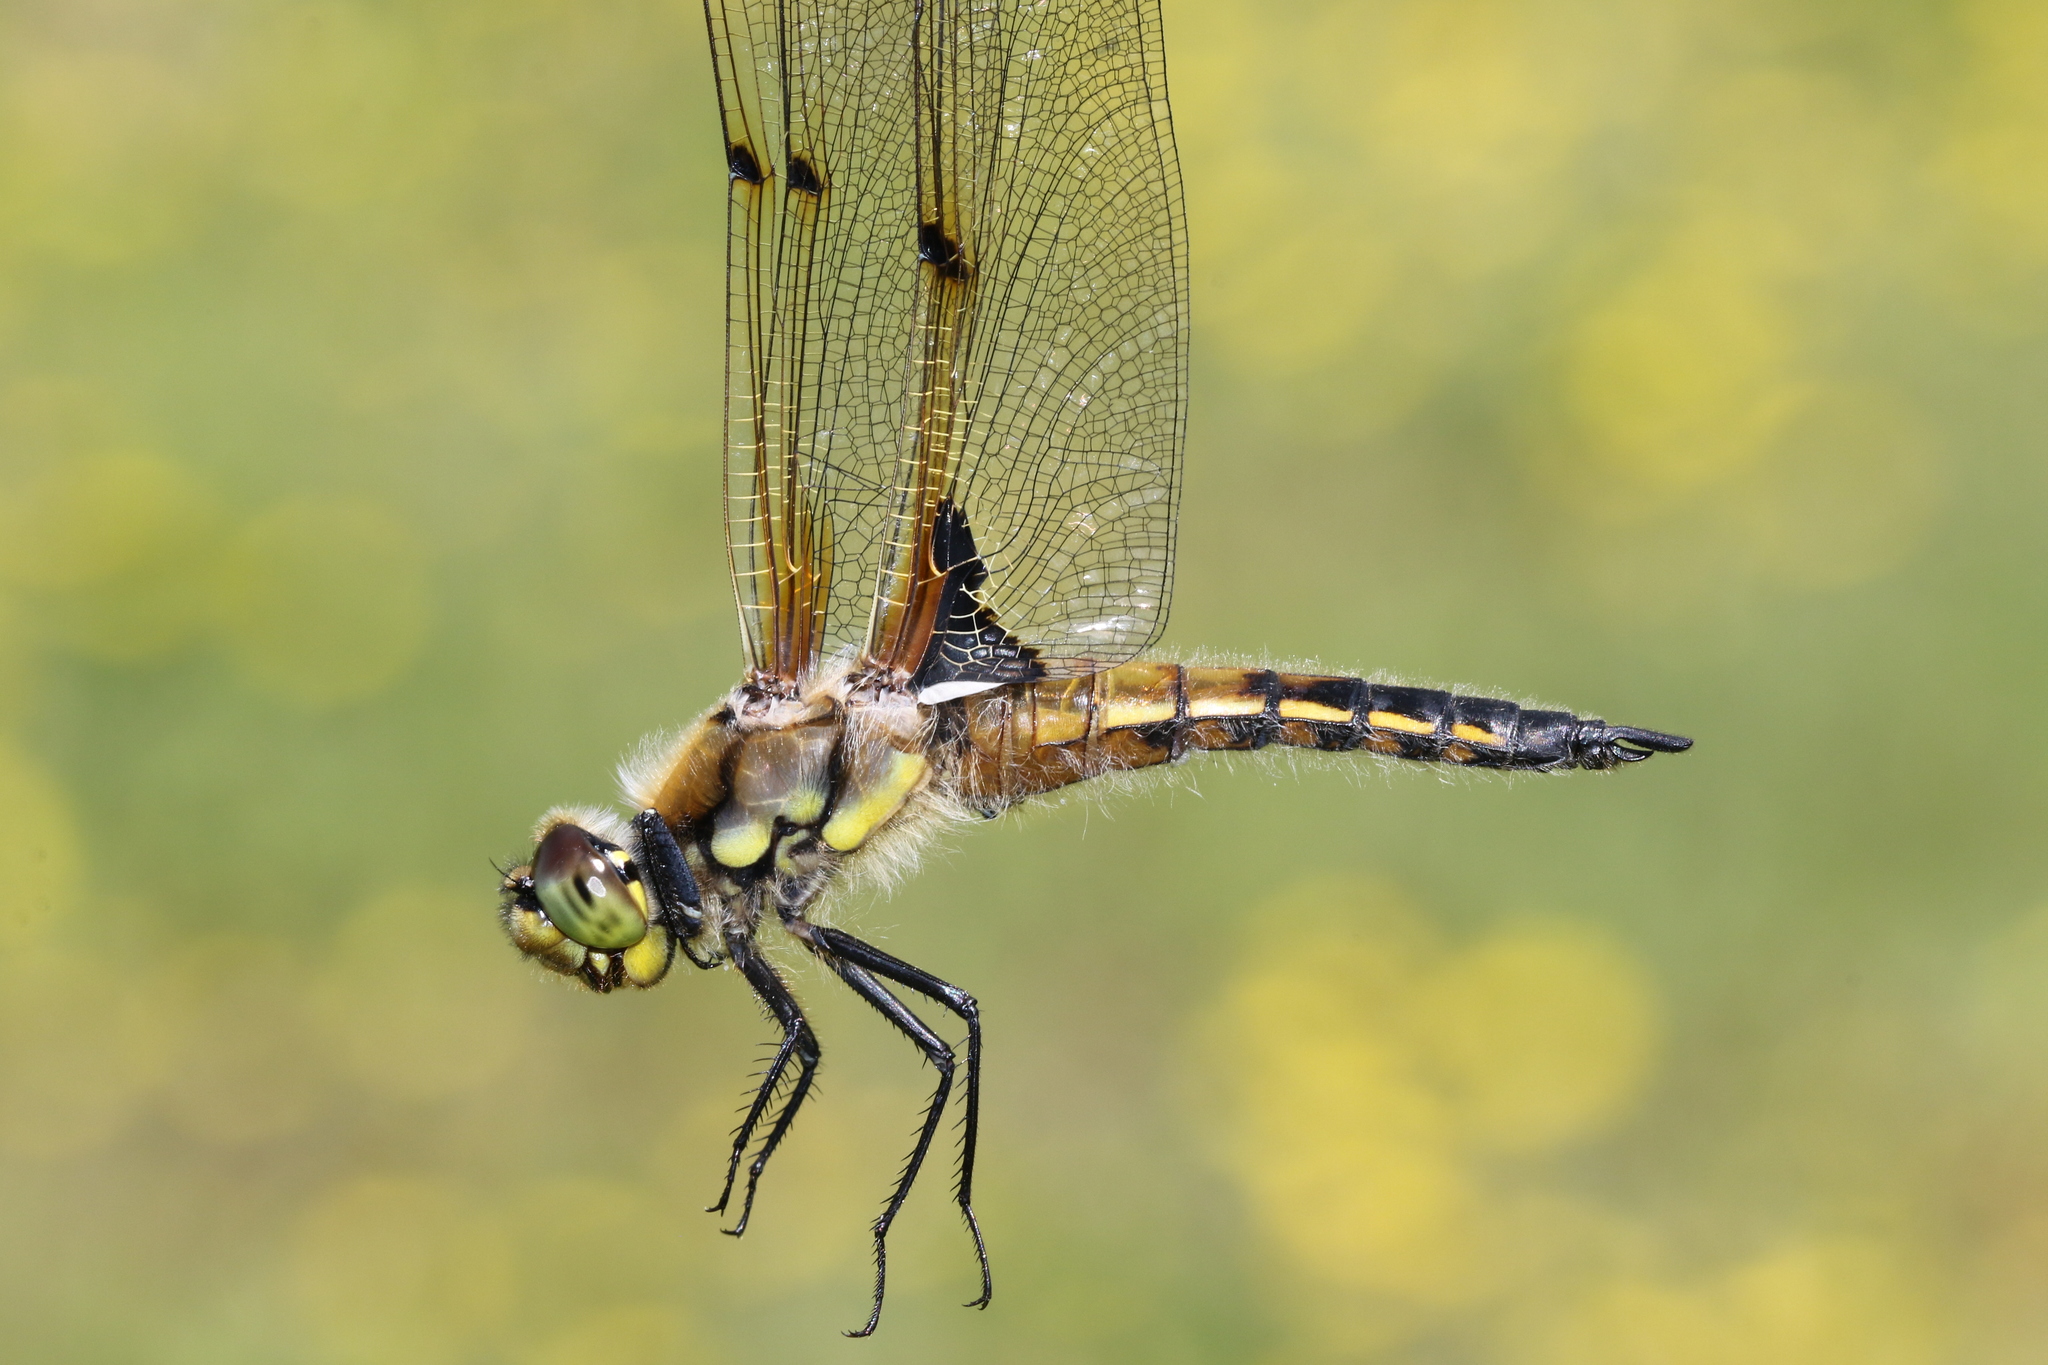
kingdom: Animalia
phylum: Arthropoda
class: Insecta
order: Odonata
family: Libellulidae
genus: Libellula
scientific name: Libellula quadrimaculata
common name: Four-spotted chaser
